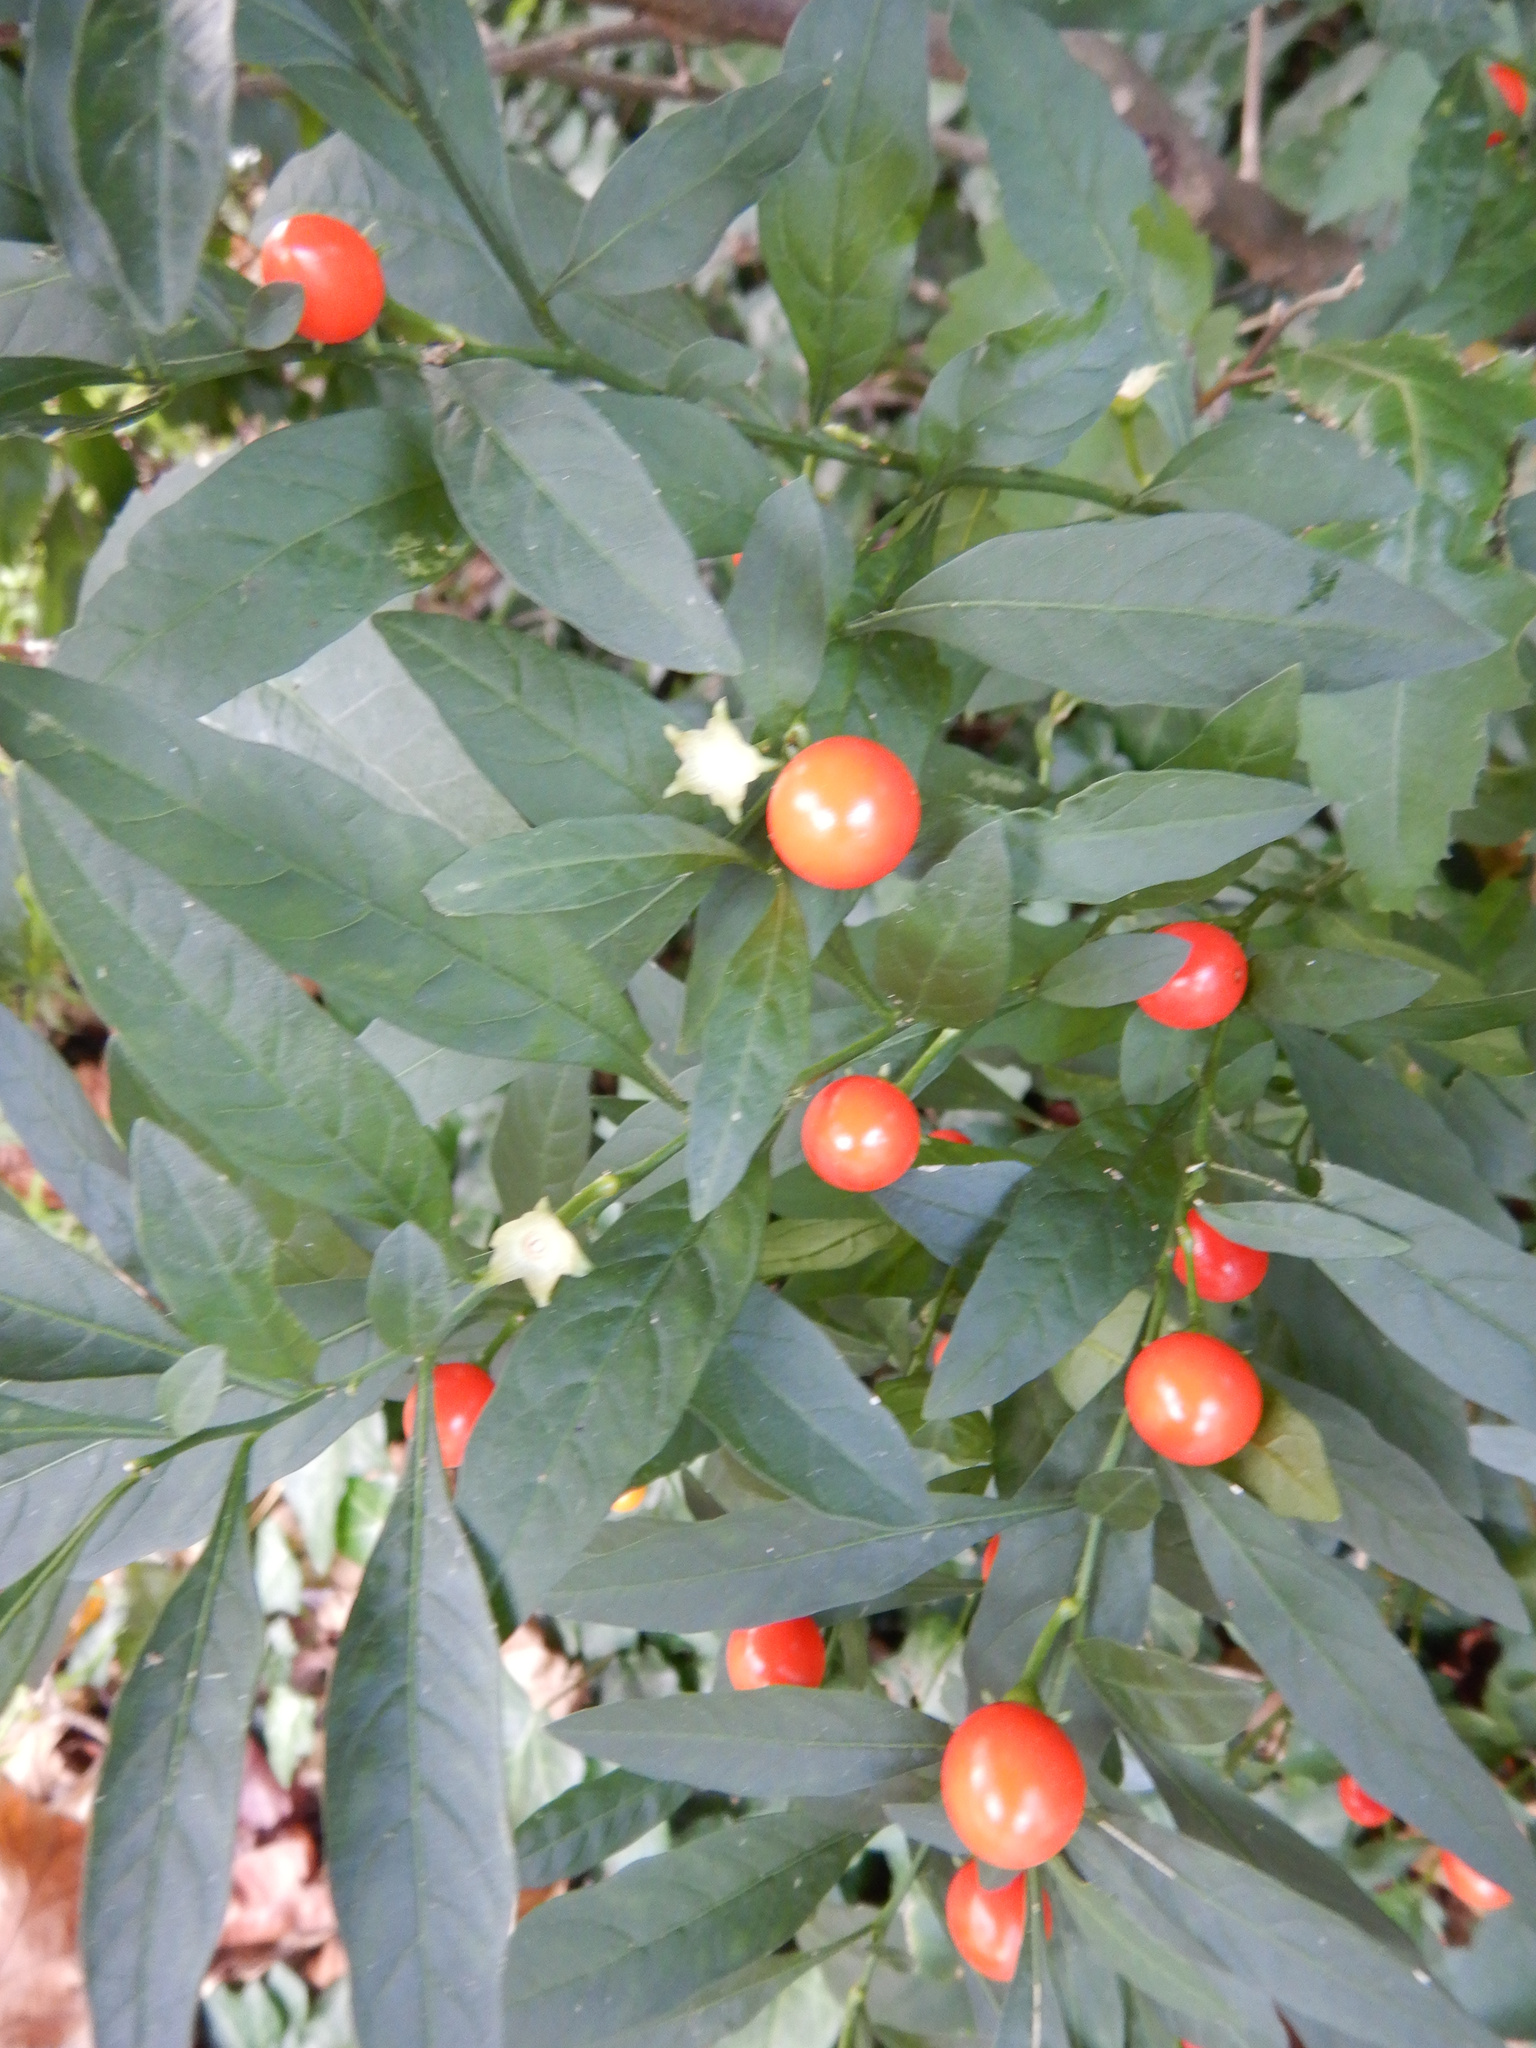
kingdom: Plantae
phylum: Tracheophyta
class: Magnoliopsida
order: Solanales
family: Solanaceae
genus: Solanum
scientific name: Solanum pseudocapsicum
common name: Jerusalem cherry
